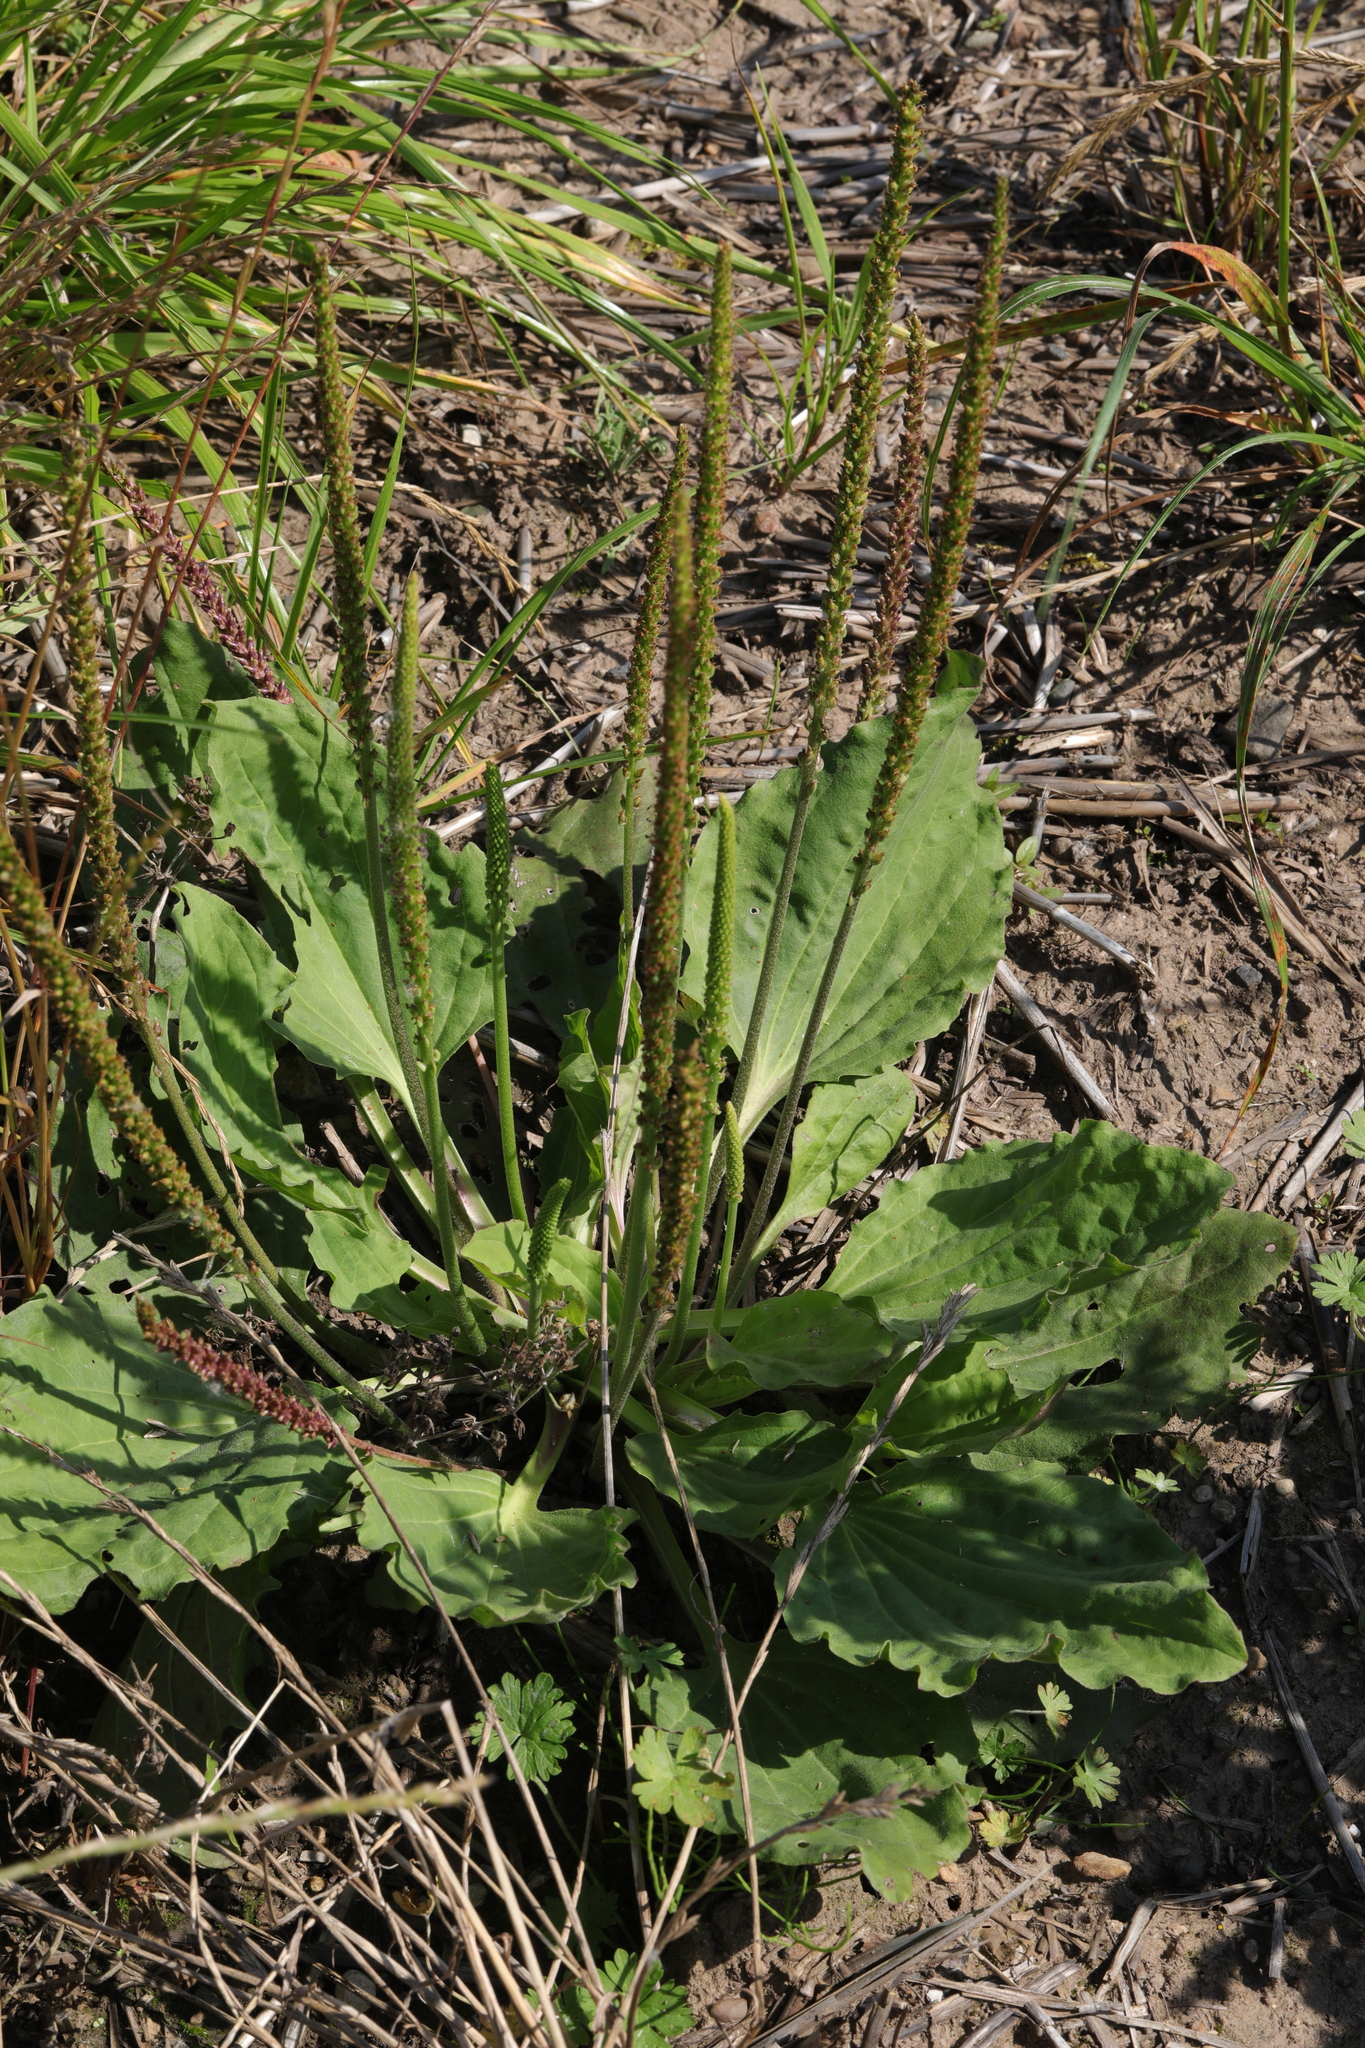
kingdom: Plantae
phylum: Tracheophyta
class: Magnoliopsida
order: Lamiales
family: Plantaginaceae
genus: Plantago
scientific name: Plantago major
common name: Common plantain
